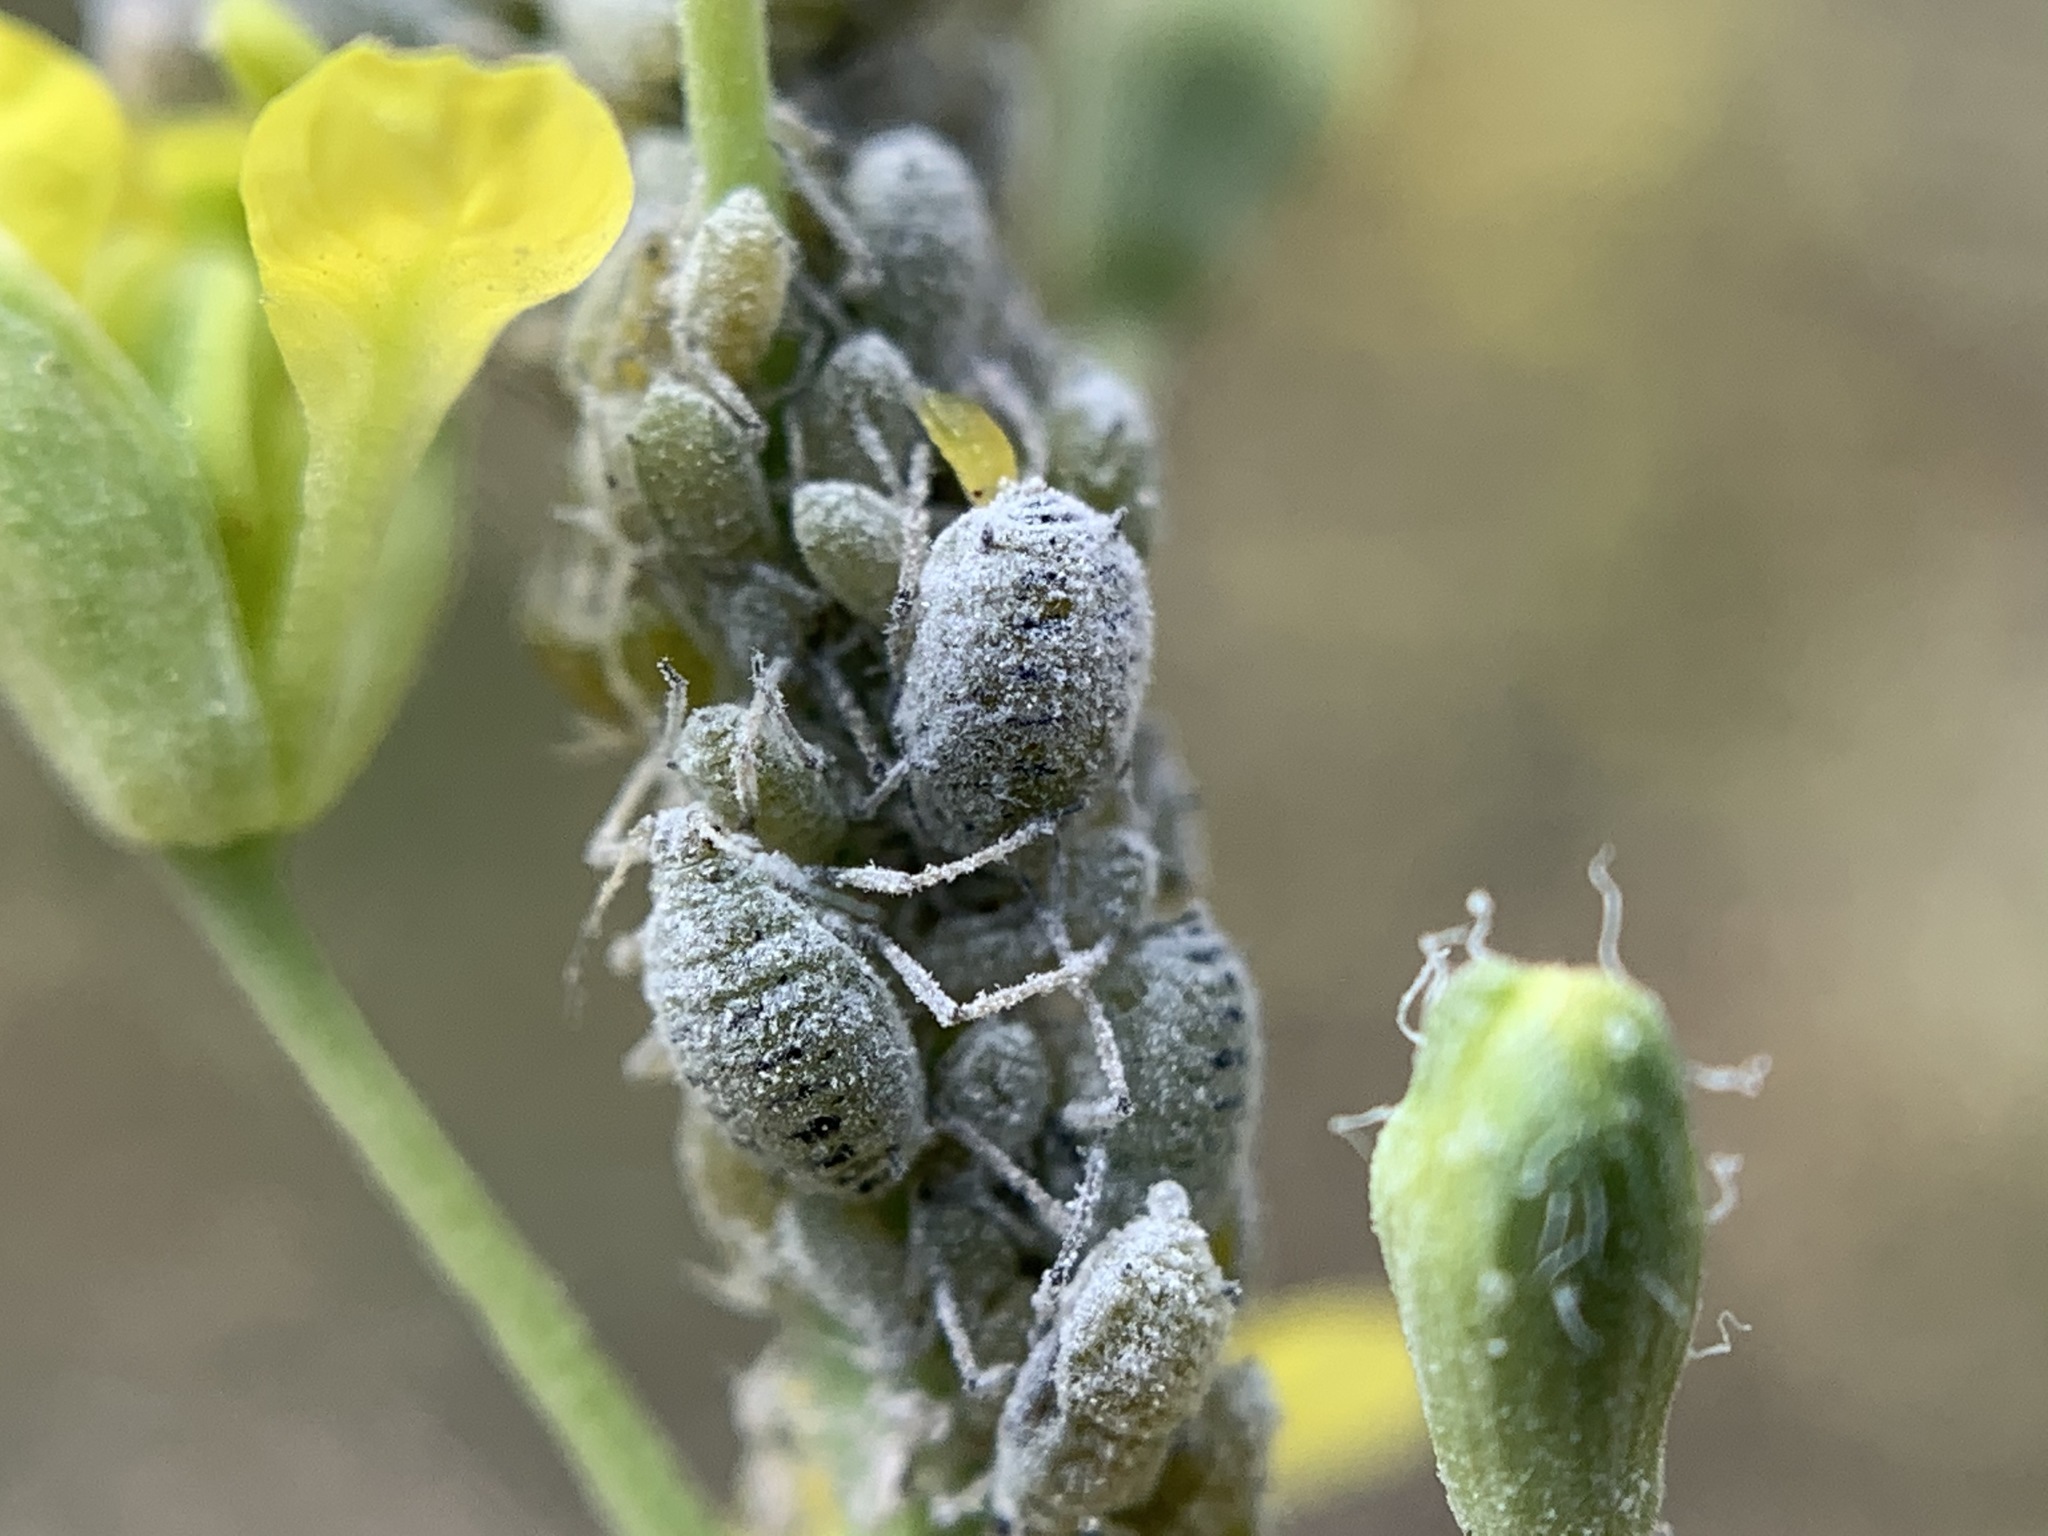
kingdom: Animalia
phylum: Arthropoda
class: Insecta
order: Hemiptera
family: Aphididae
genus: Brevicoryne
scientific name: Brevicoryne brassicae
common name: Cabbage aphid
